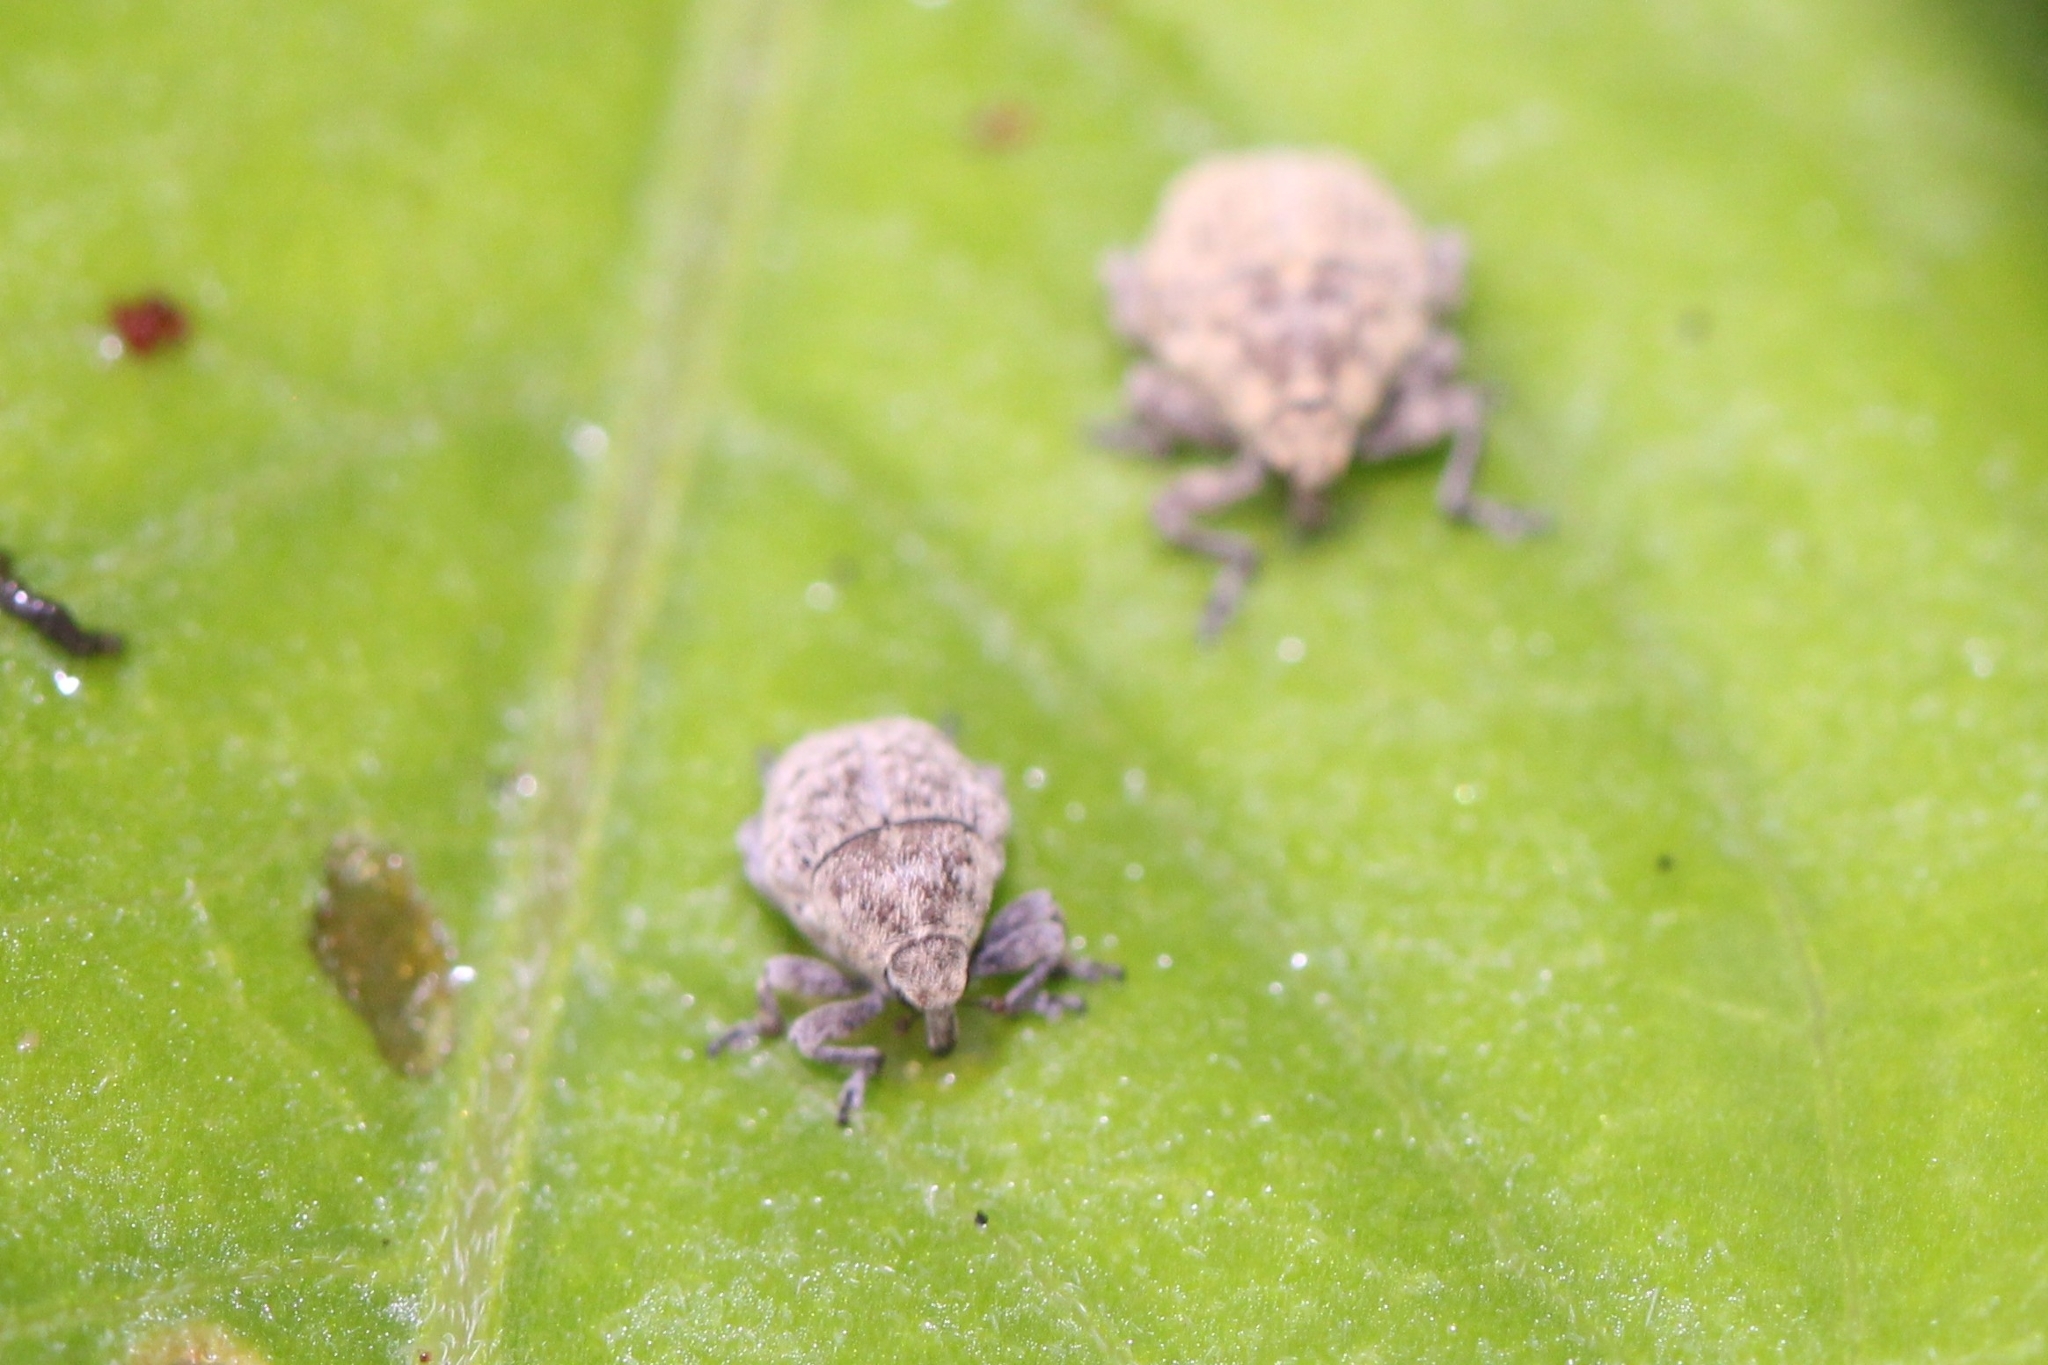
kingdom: Animalia
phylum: Arthropoda
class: Insecta
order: Coleoptera
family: Curculionidae
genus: Acanthoscelidius
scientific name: Acanthoscelidius acephalus
